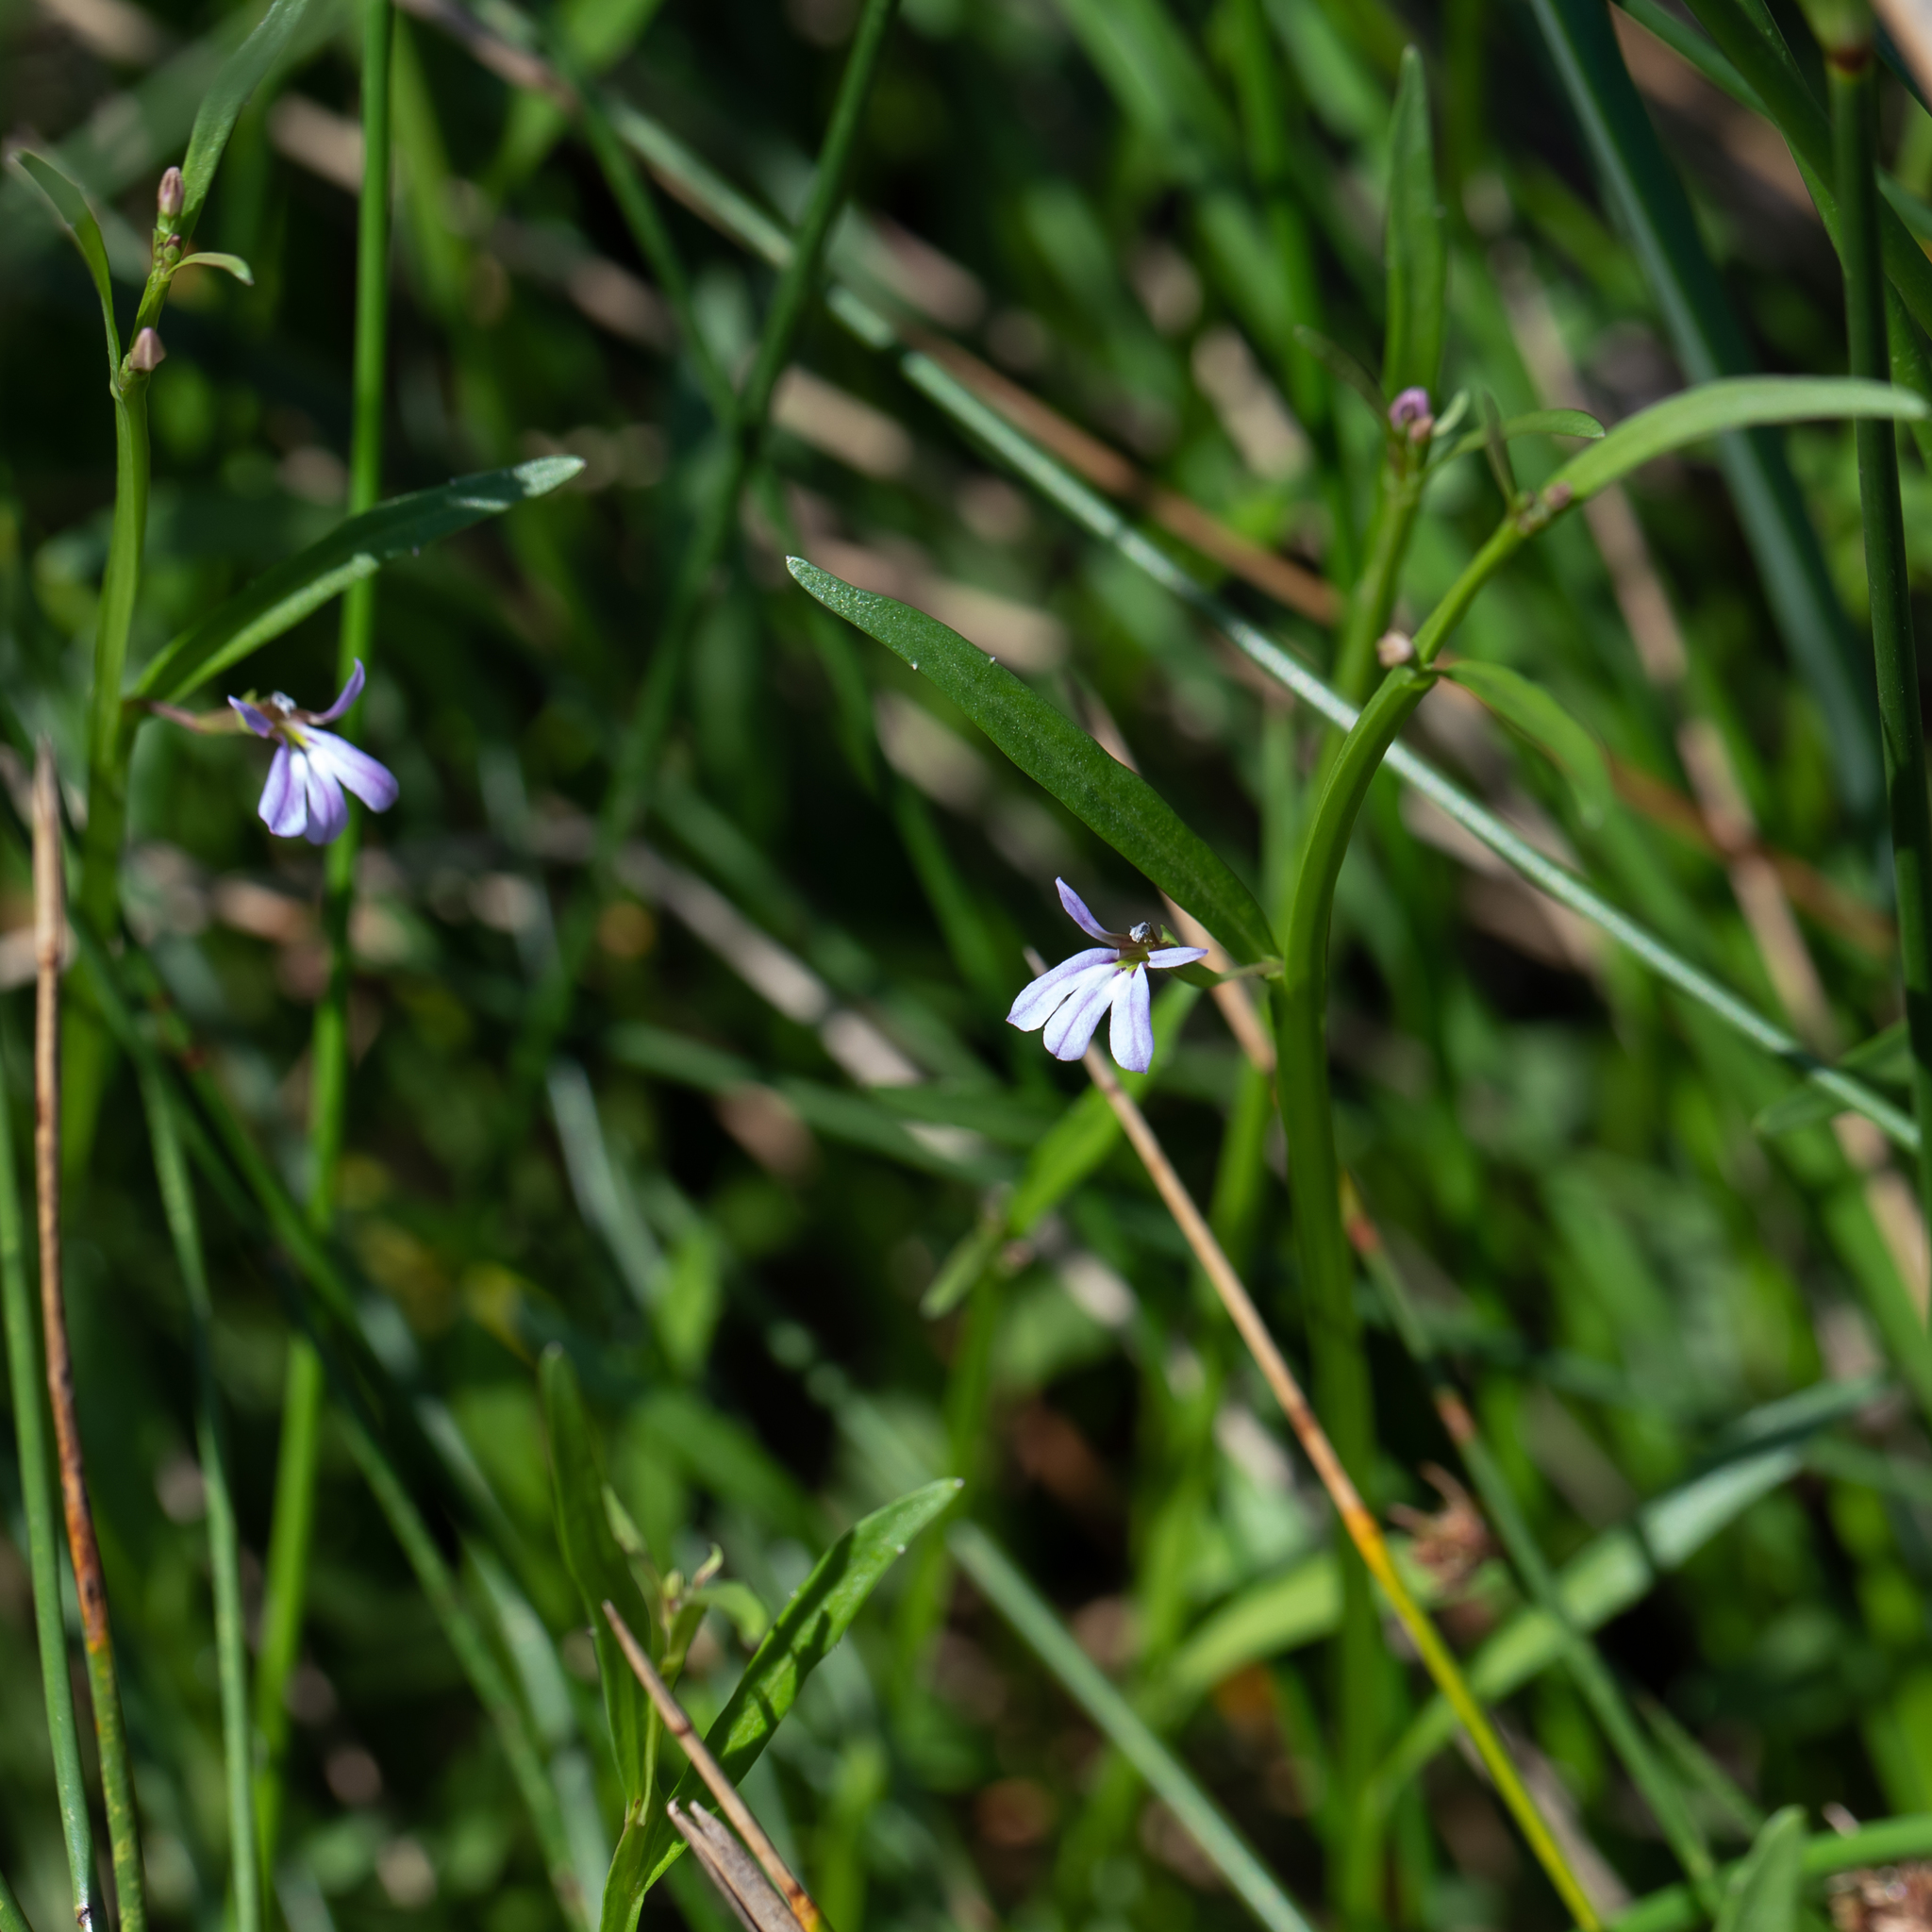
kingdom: Plantae
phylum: Tracheophyta
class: Magnoliopsida
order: Asterales
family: Campanulaceae
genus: Lobelia
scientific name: Lobelia anceps
